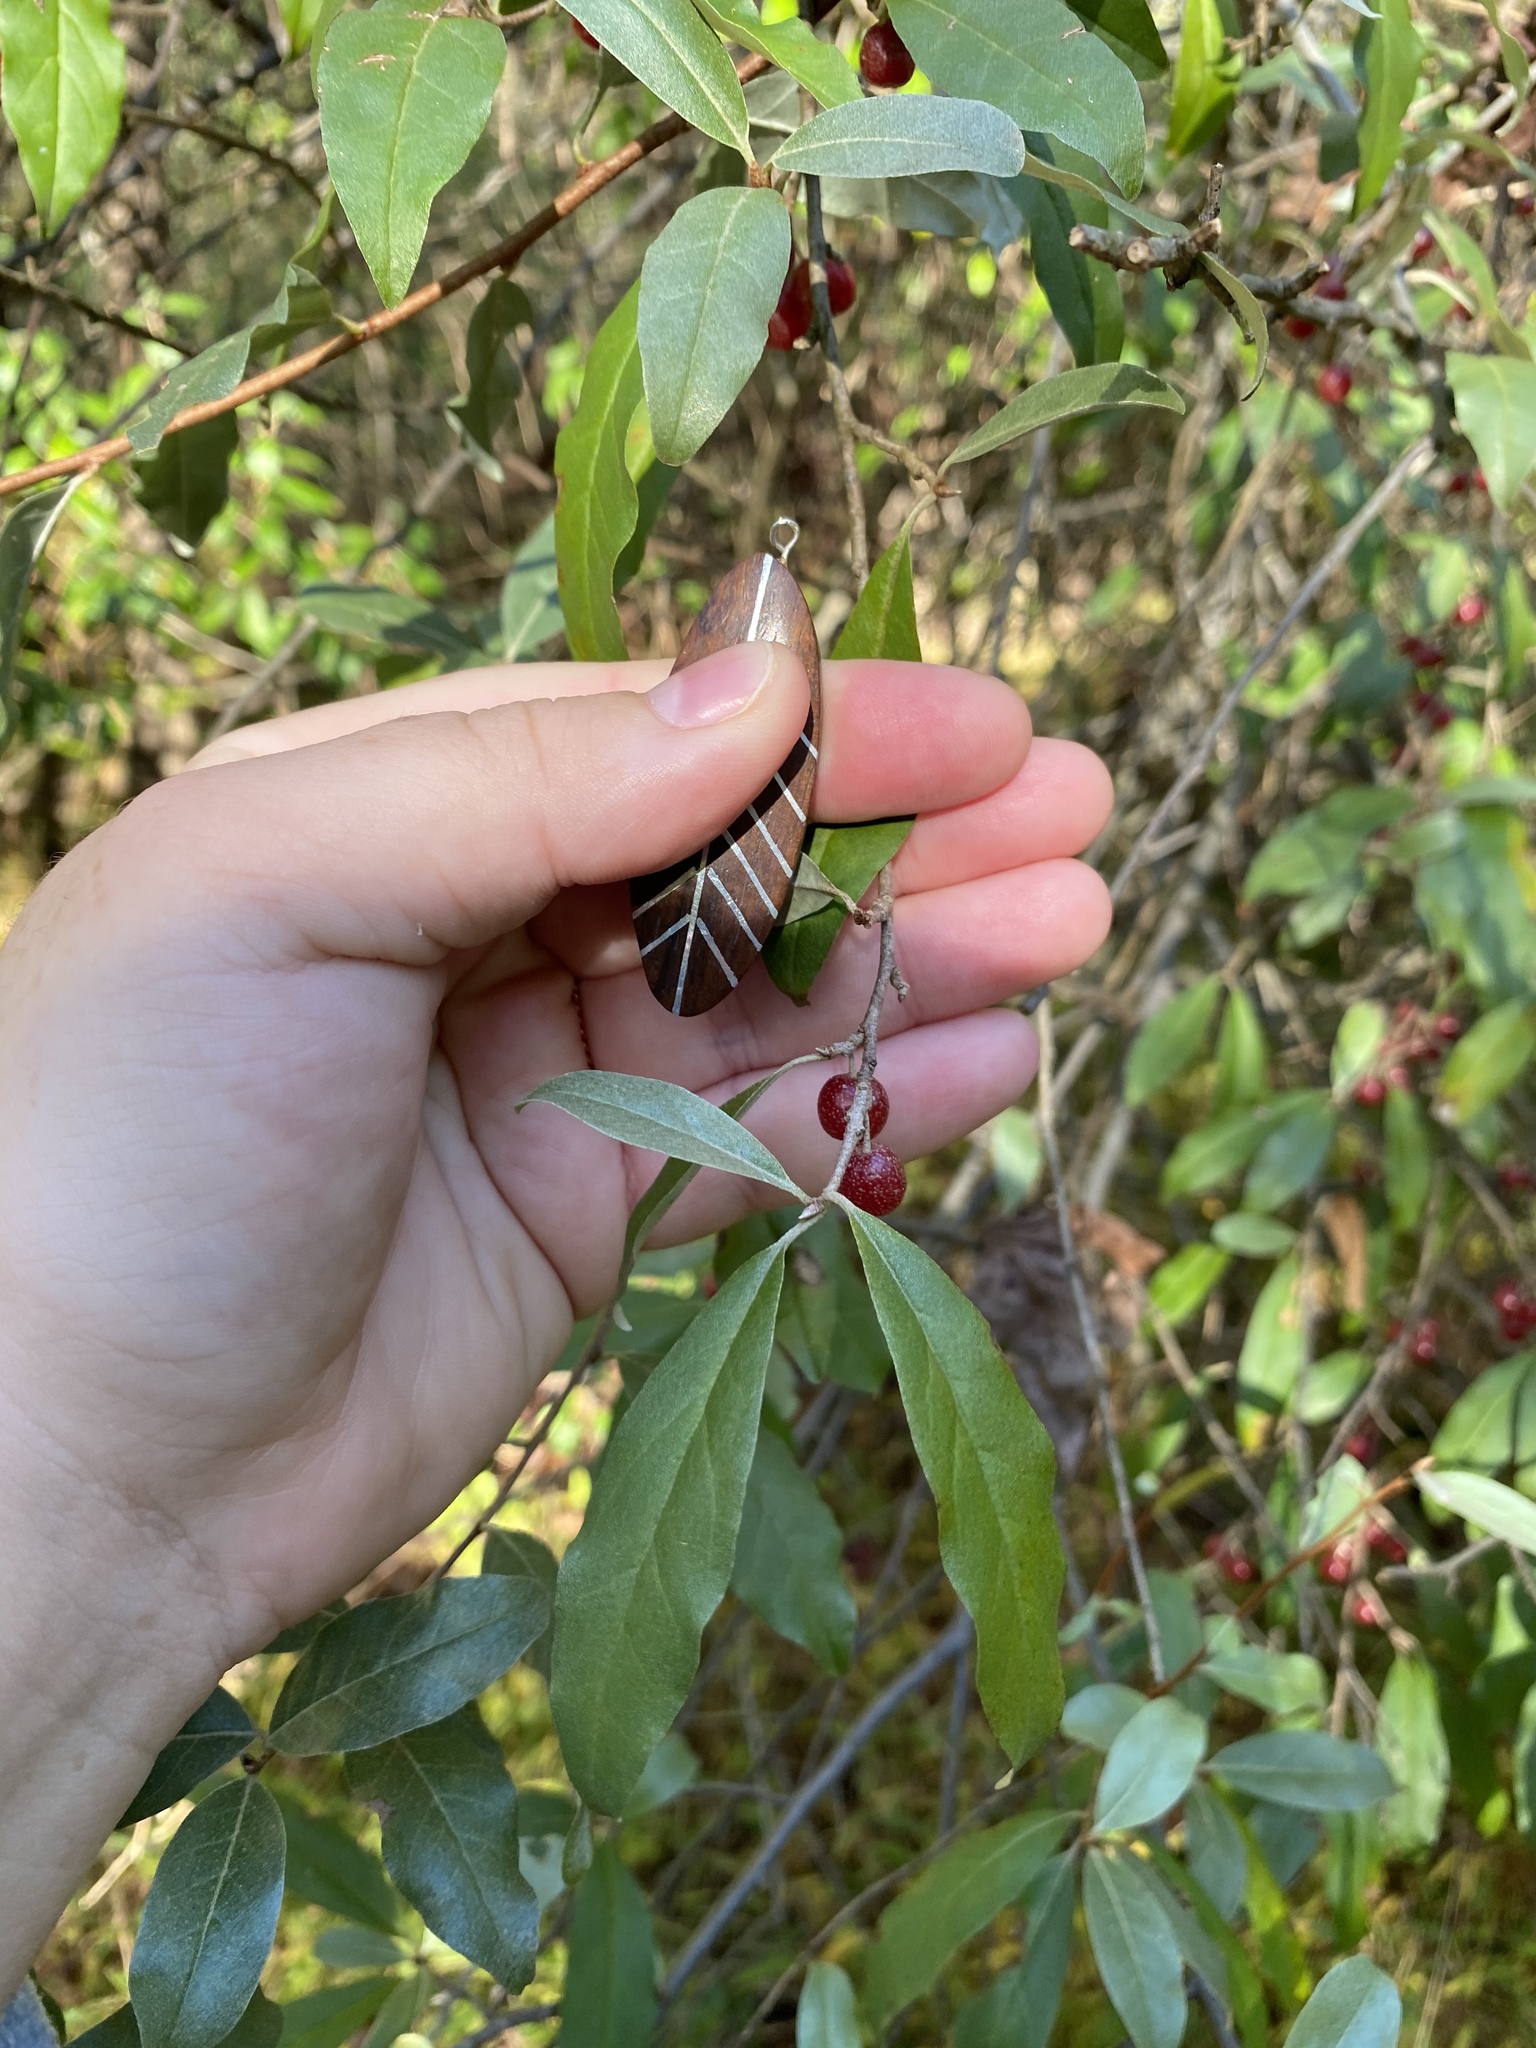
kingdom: Plantae
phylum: Tracheophyta
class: Magnoliopsida
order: Rosales
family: Elaeagnaceae
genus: Elaeagnus
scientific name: Elaeagnus umbellata
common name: Autumn olive
